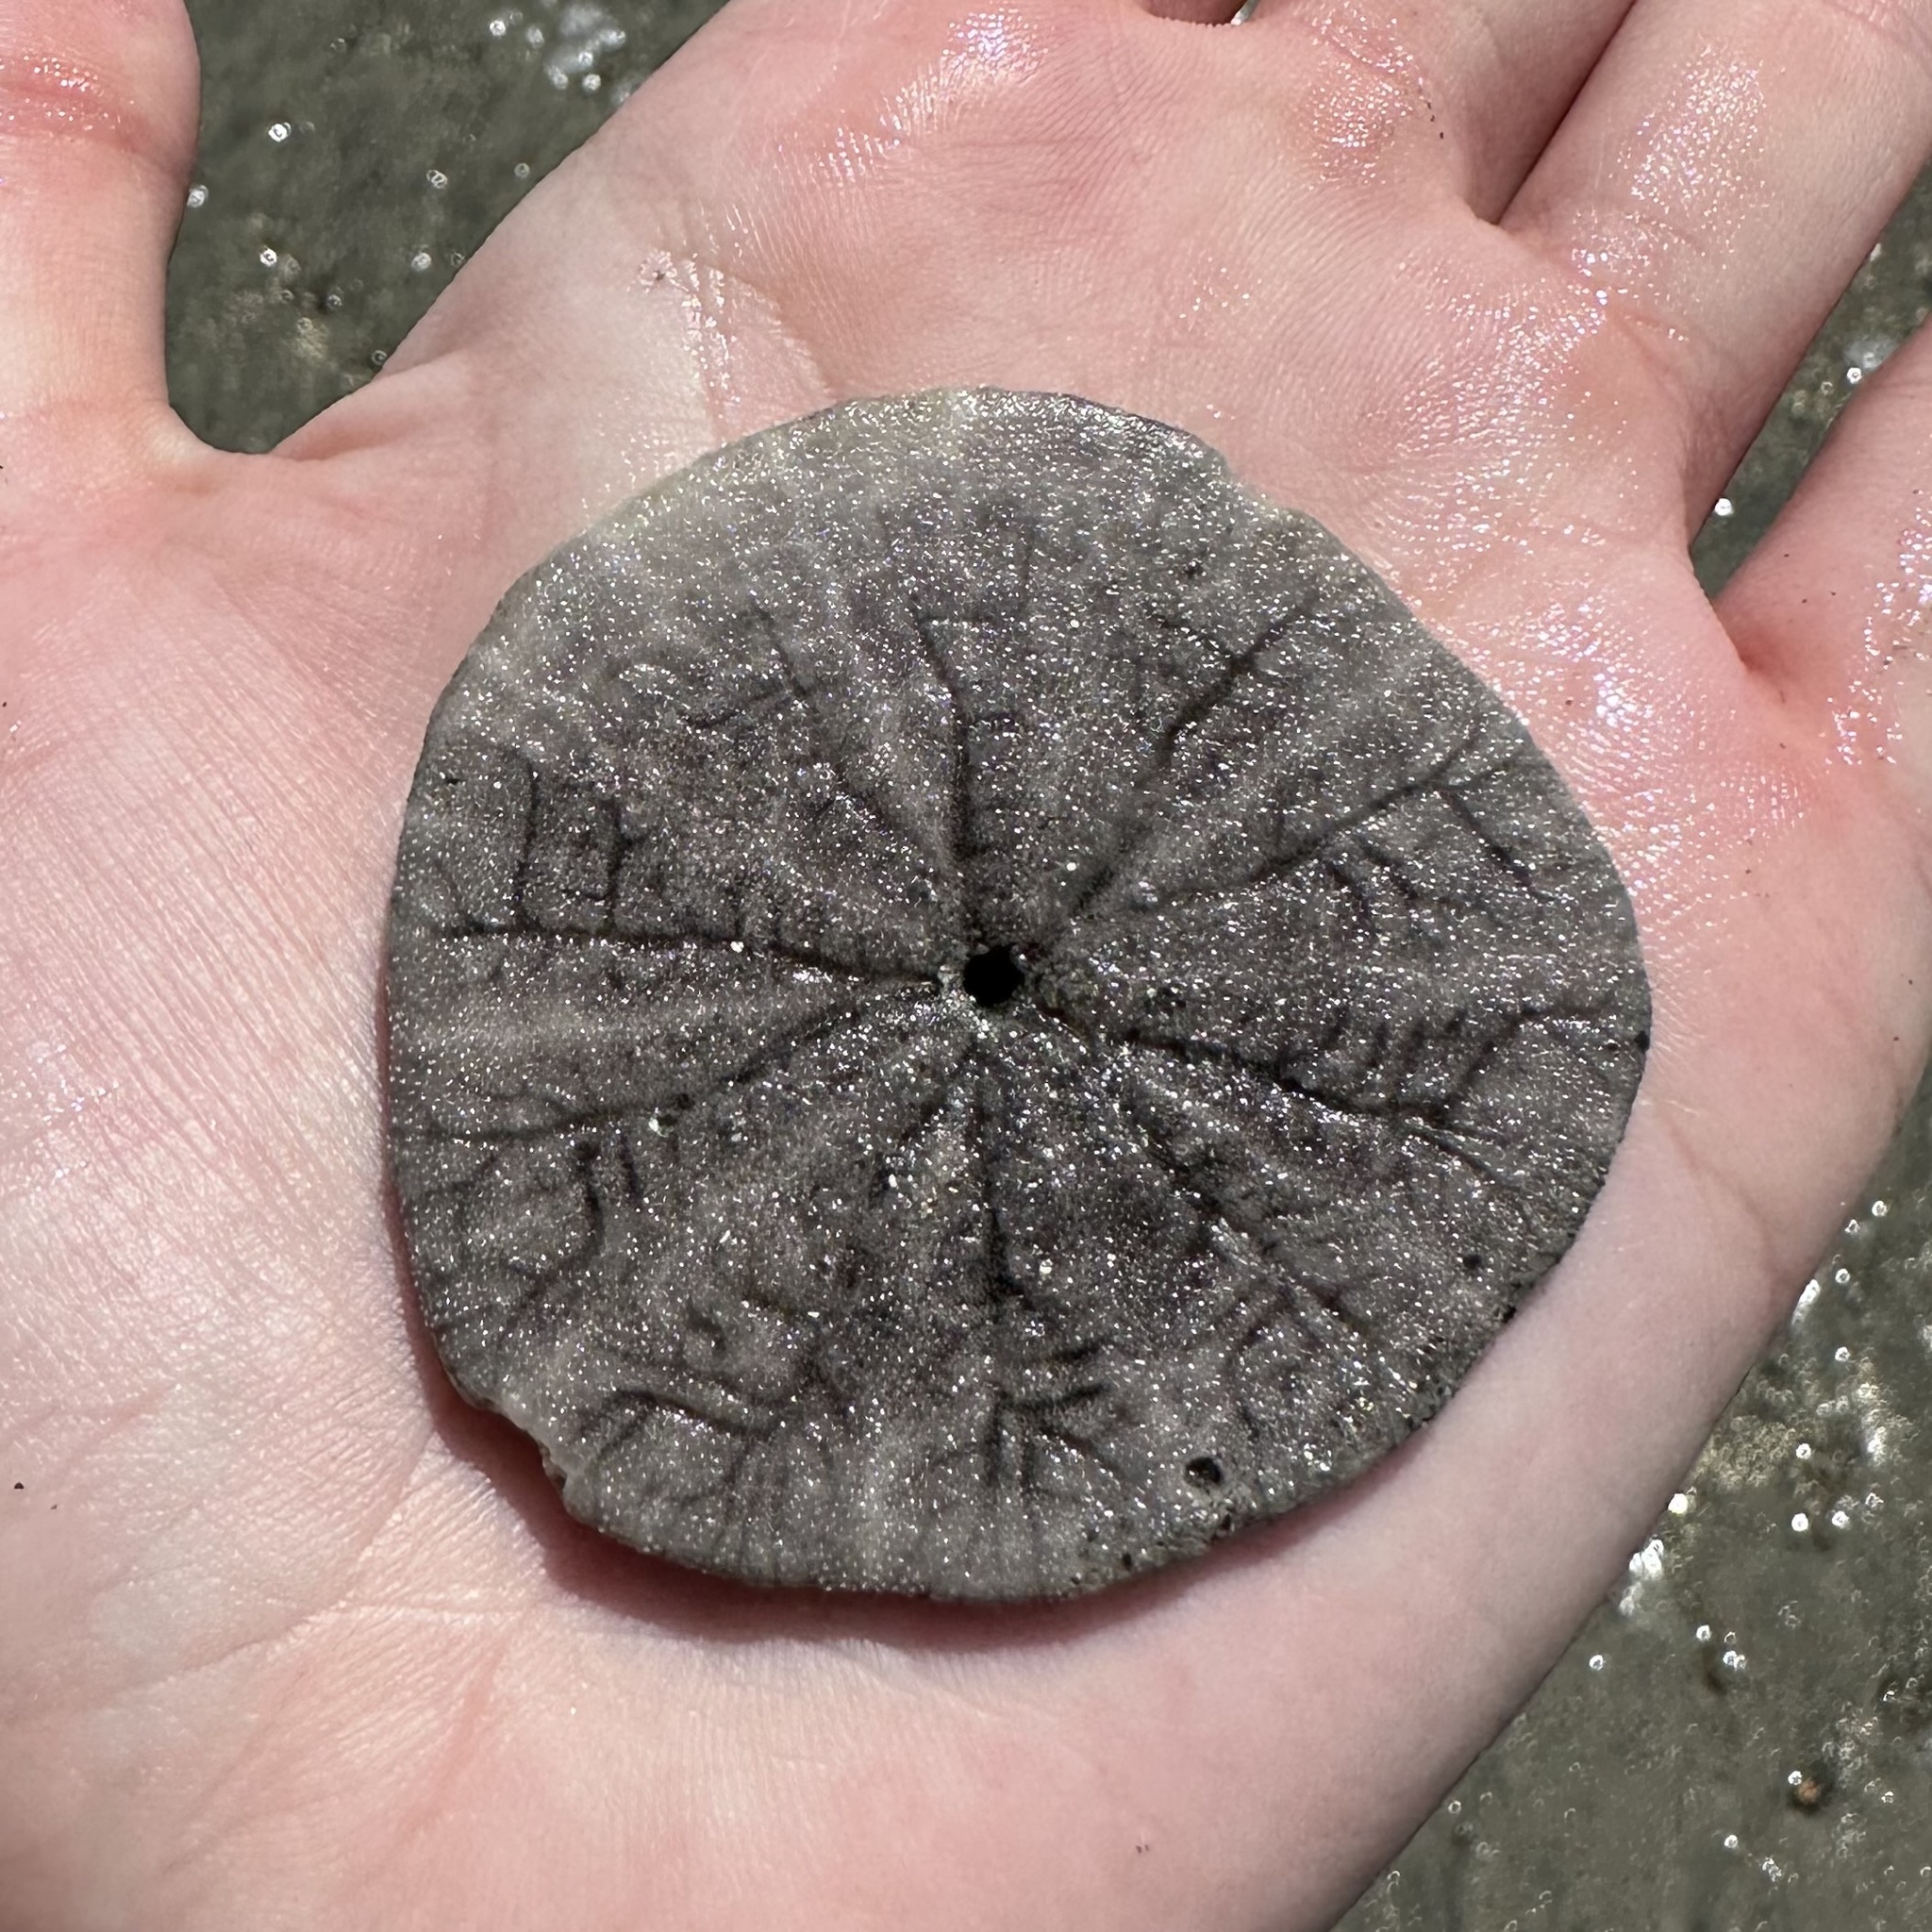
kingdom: Animalia
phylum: Echinodermata
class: Echinoidea
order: Echinolampadacea
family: Dendrasteridae
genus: Dendraster
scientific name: Dendraster excentricus
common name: Eccentric sand dollar sea urchin
